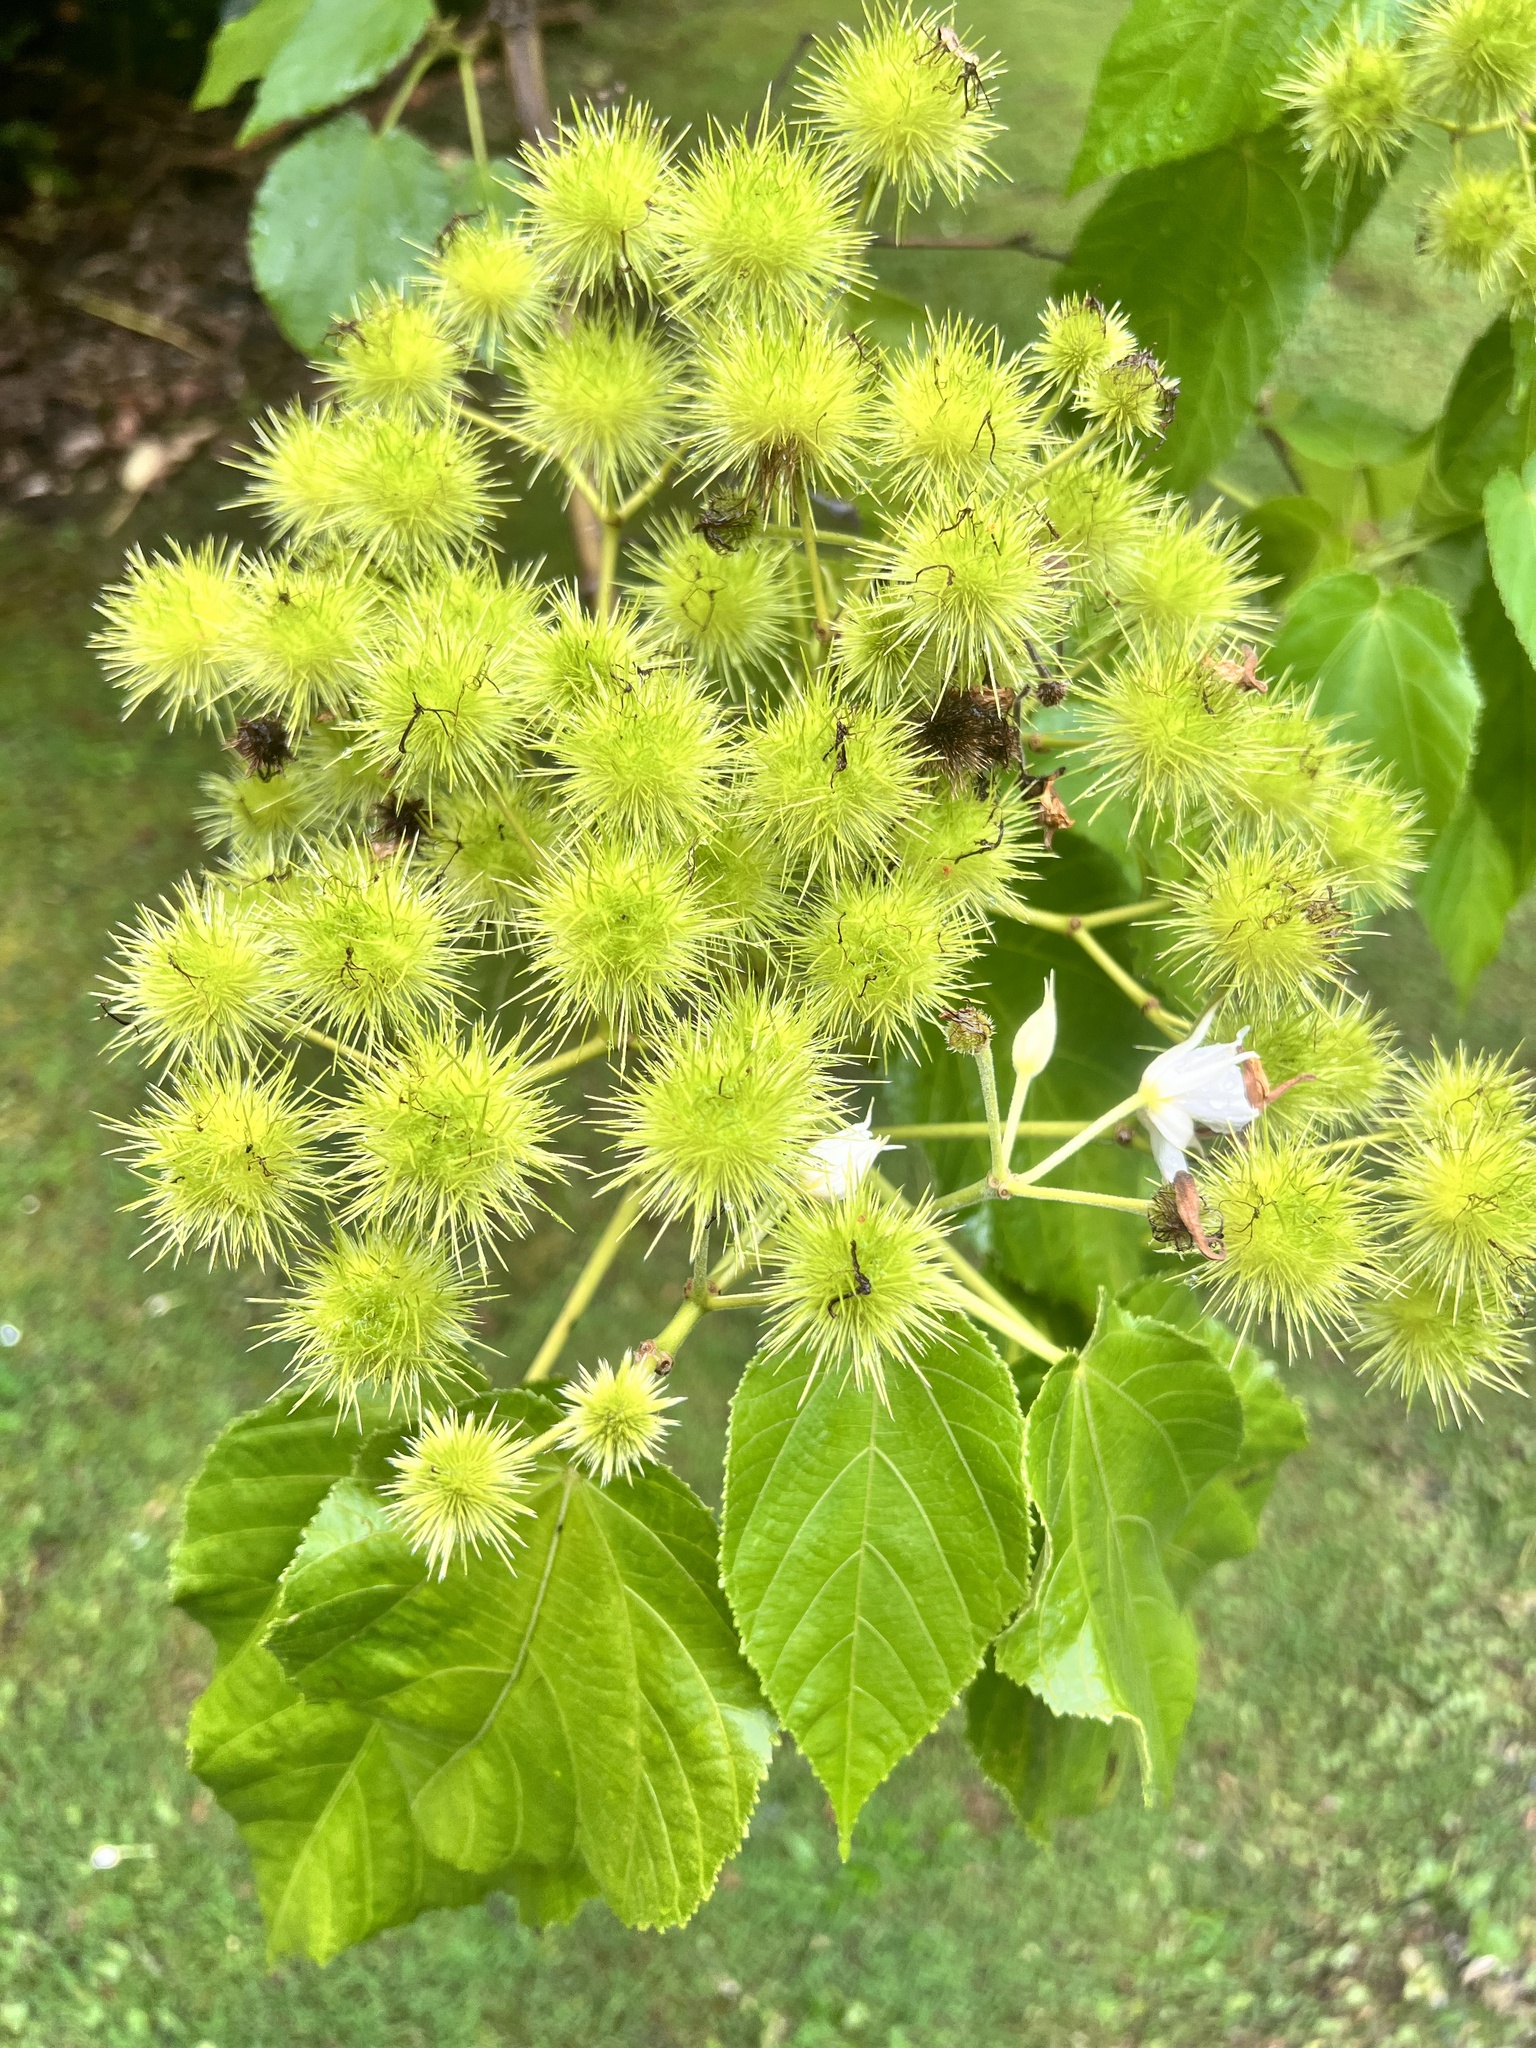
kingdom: Plantae
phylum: Tracheophyta
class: Magnoliopsida
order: Malvales
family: Malvaceae
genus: Entelea
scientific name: Entelea arborescens
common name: New zealand-mulberry
